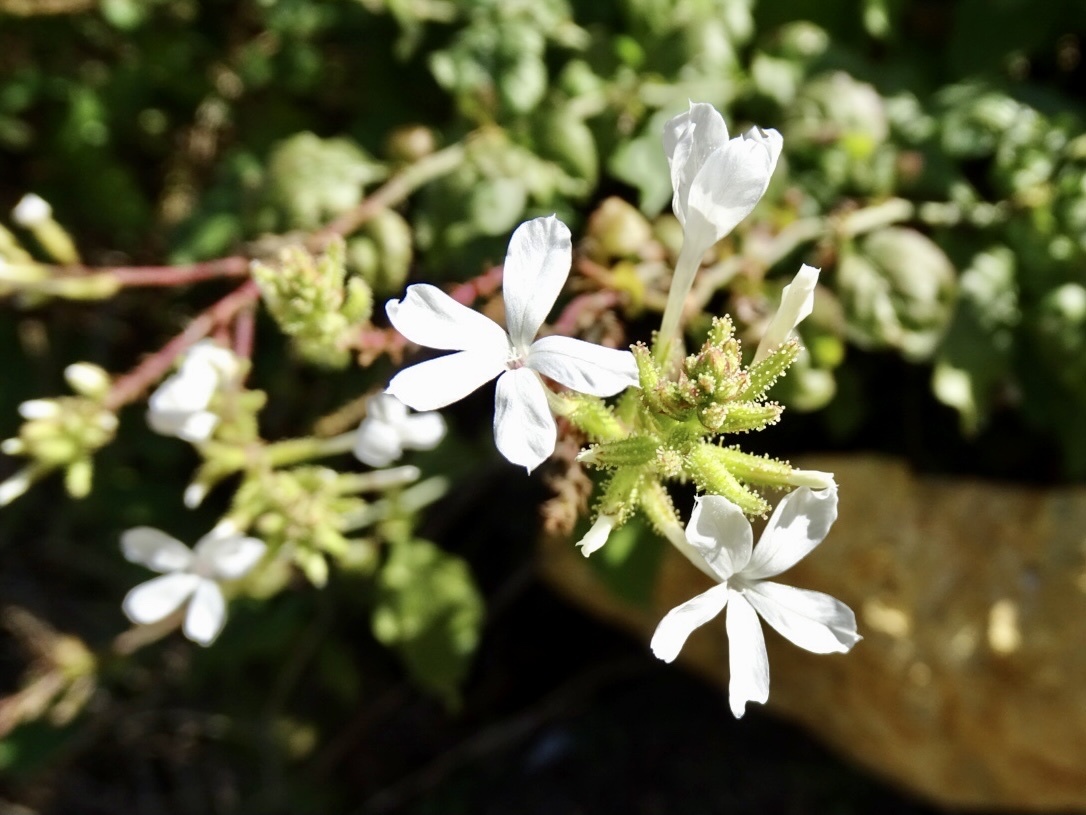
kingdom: Plantae
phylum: Tracheophyta
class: Magnoliopsida
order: Caryophyllales
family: Plumbaginaceae
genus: Plumbago
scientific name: Plumbago zeylanica
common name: Doctorbush
